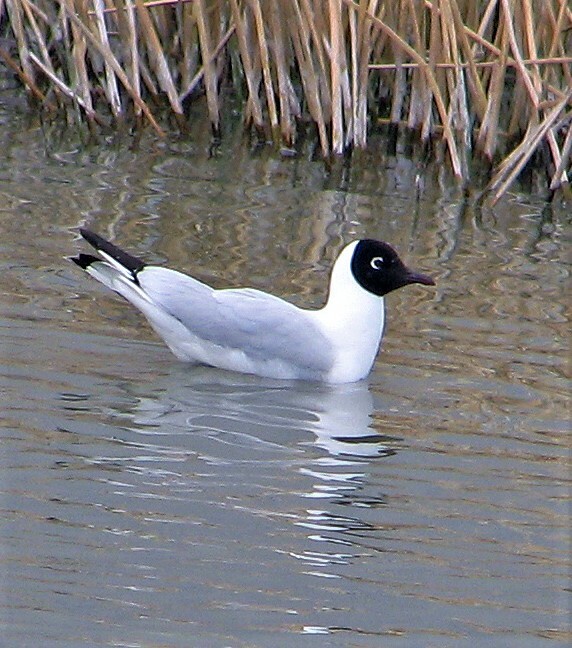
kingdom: Animalia
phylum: Chordata
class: Aves
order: Charadriiformes
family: Laridae
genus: Chroicocephalus
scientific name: Chroicocephalus serranus
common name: Andean gull
